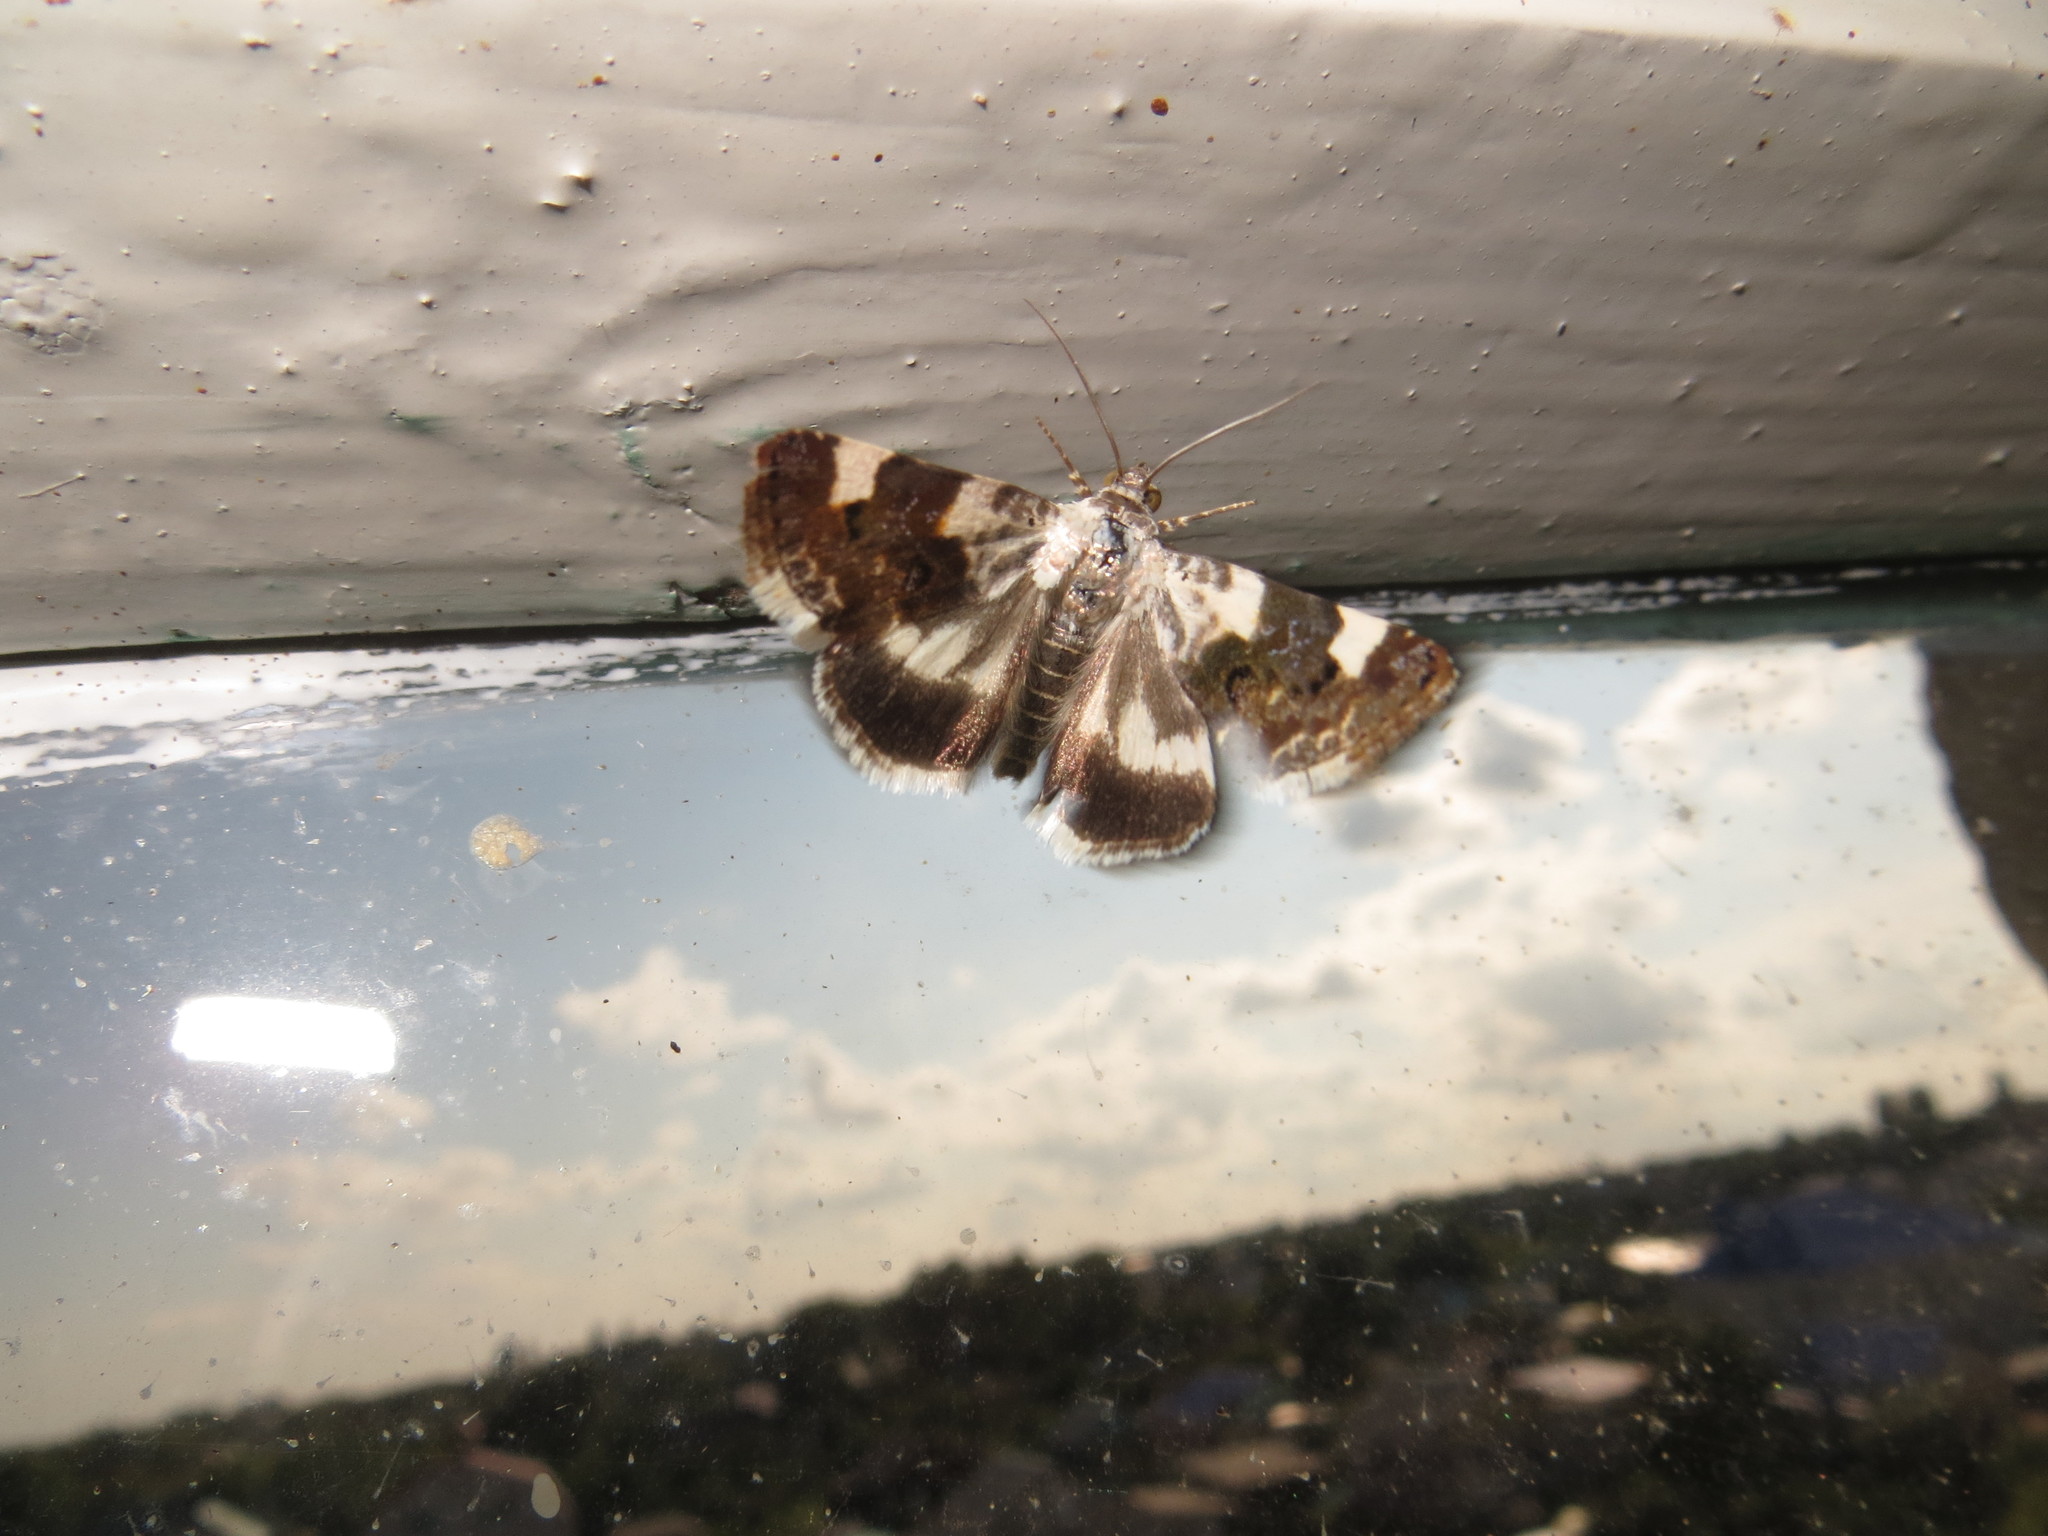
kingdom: Animalia
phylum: Arthropoda
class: Insecta
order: Lepidoptera
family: Noctuidae
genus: Acontia
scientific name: Acontia lucida
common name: Pale shoulder
